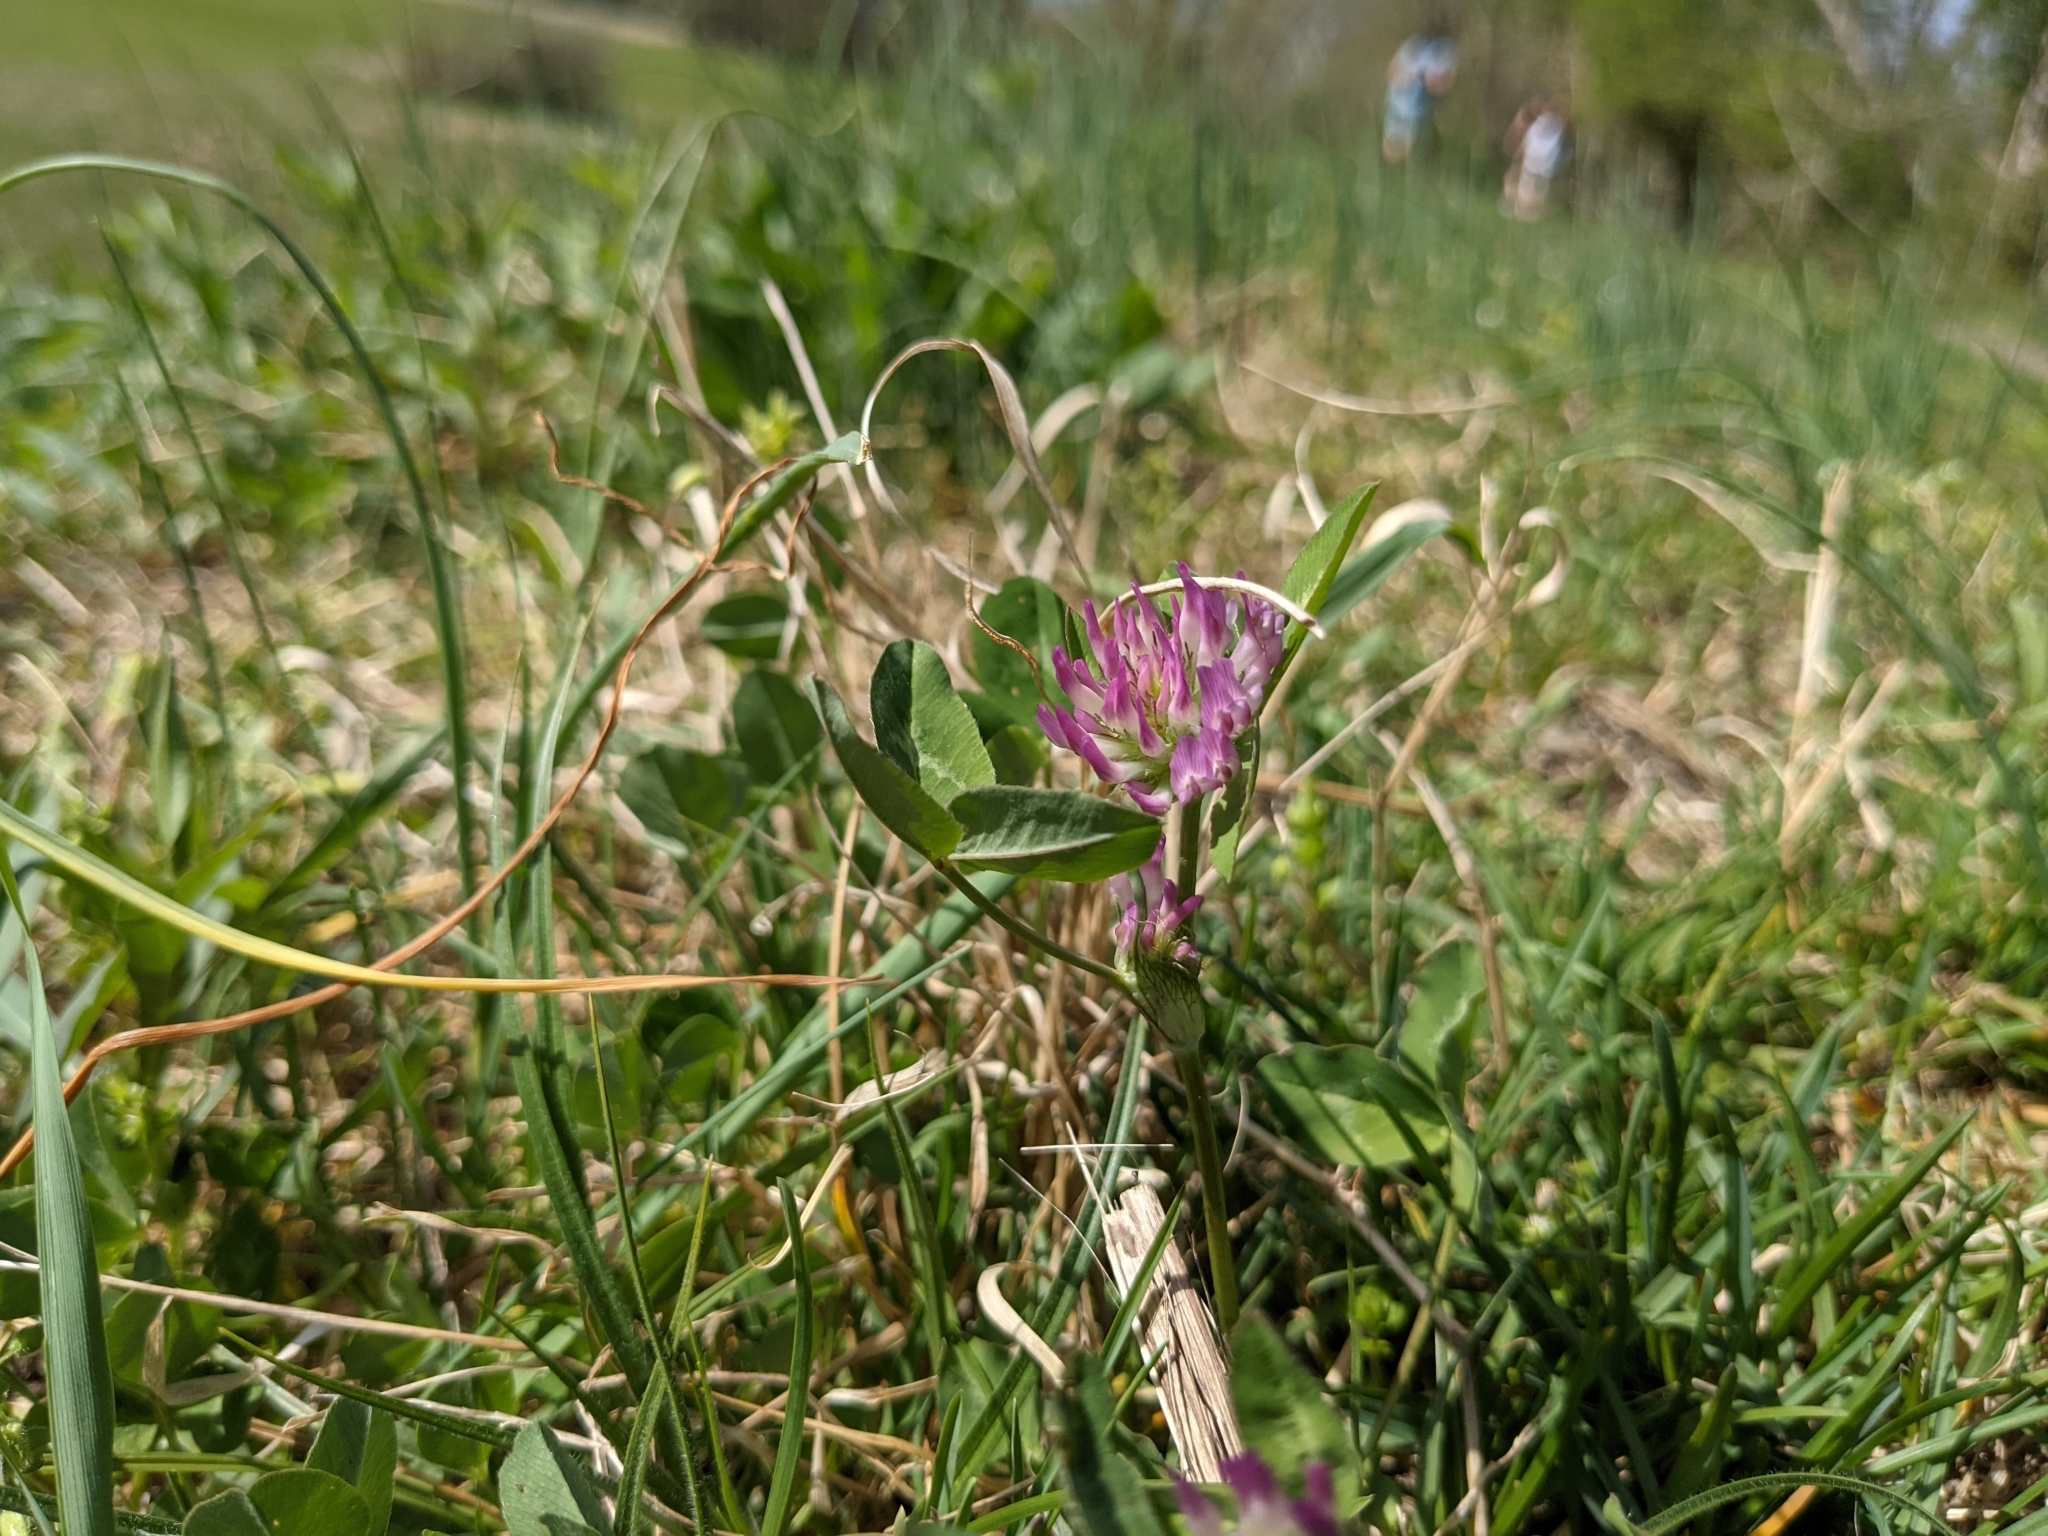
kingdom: Plantae
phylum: Tracheophyta
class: Magnoliopsida
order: Fabales
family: Fabaceae
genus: Trifolium
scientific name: Trifolium pratense
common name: Red clover
